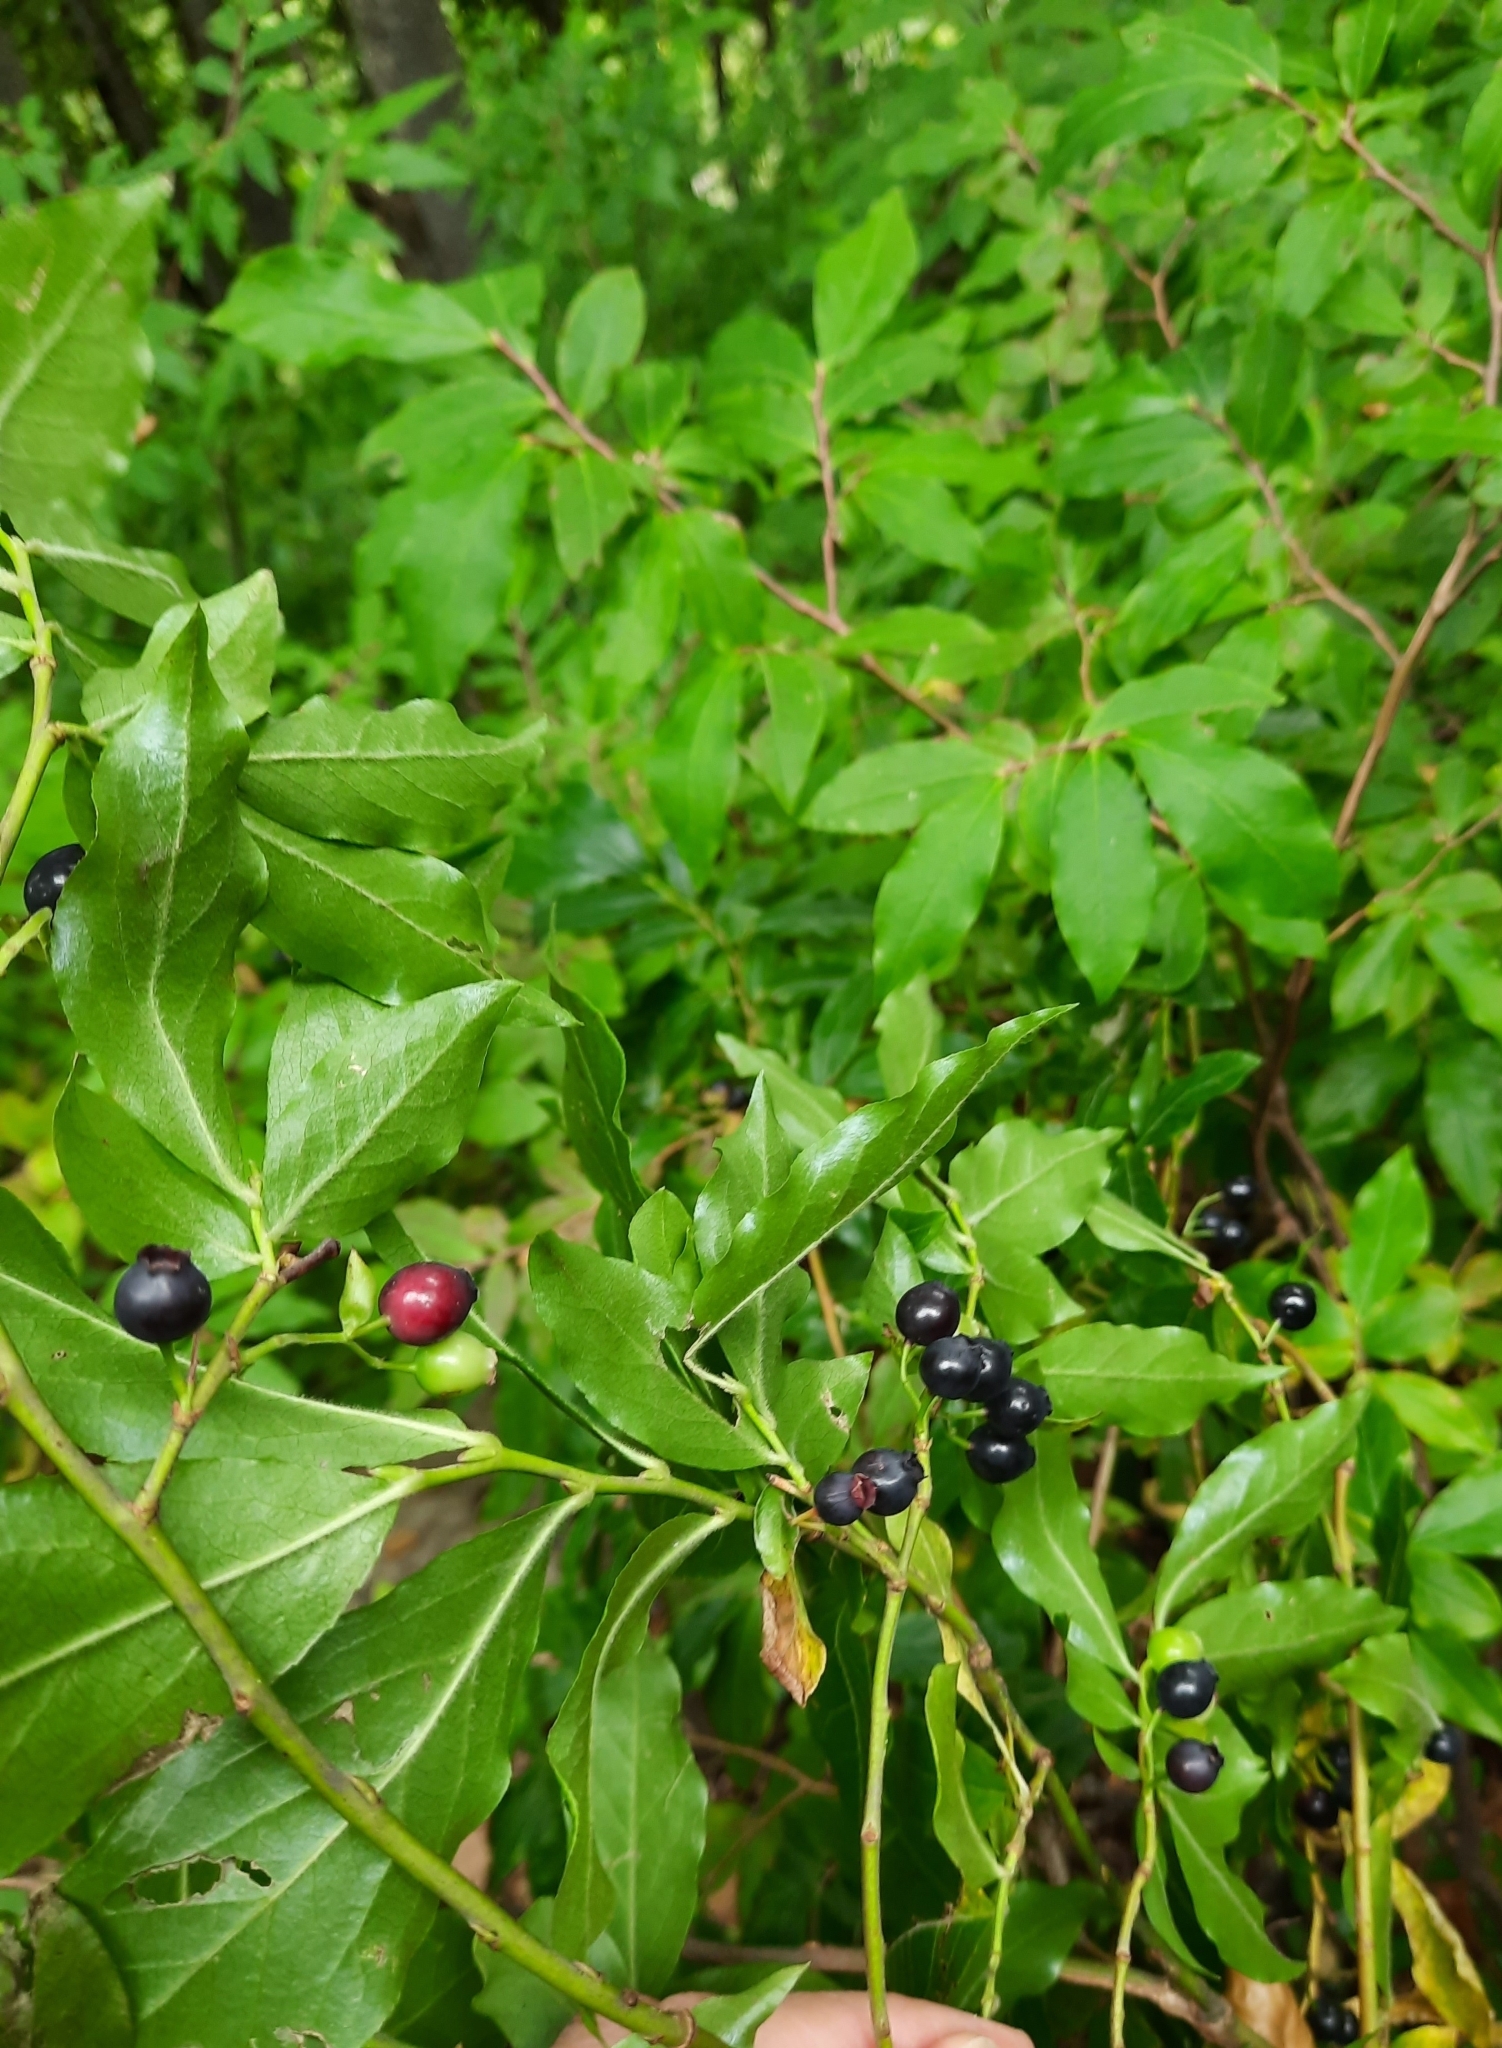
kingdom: Plantae
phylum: Tracheophyta
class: Magnoliopsida
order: Ericales
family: Ericaceae
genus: Vaccinium
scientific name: Vaccinium arctostaphylos
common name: Caucasian whortleberry
